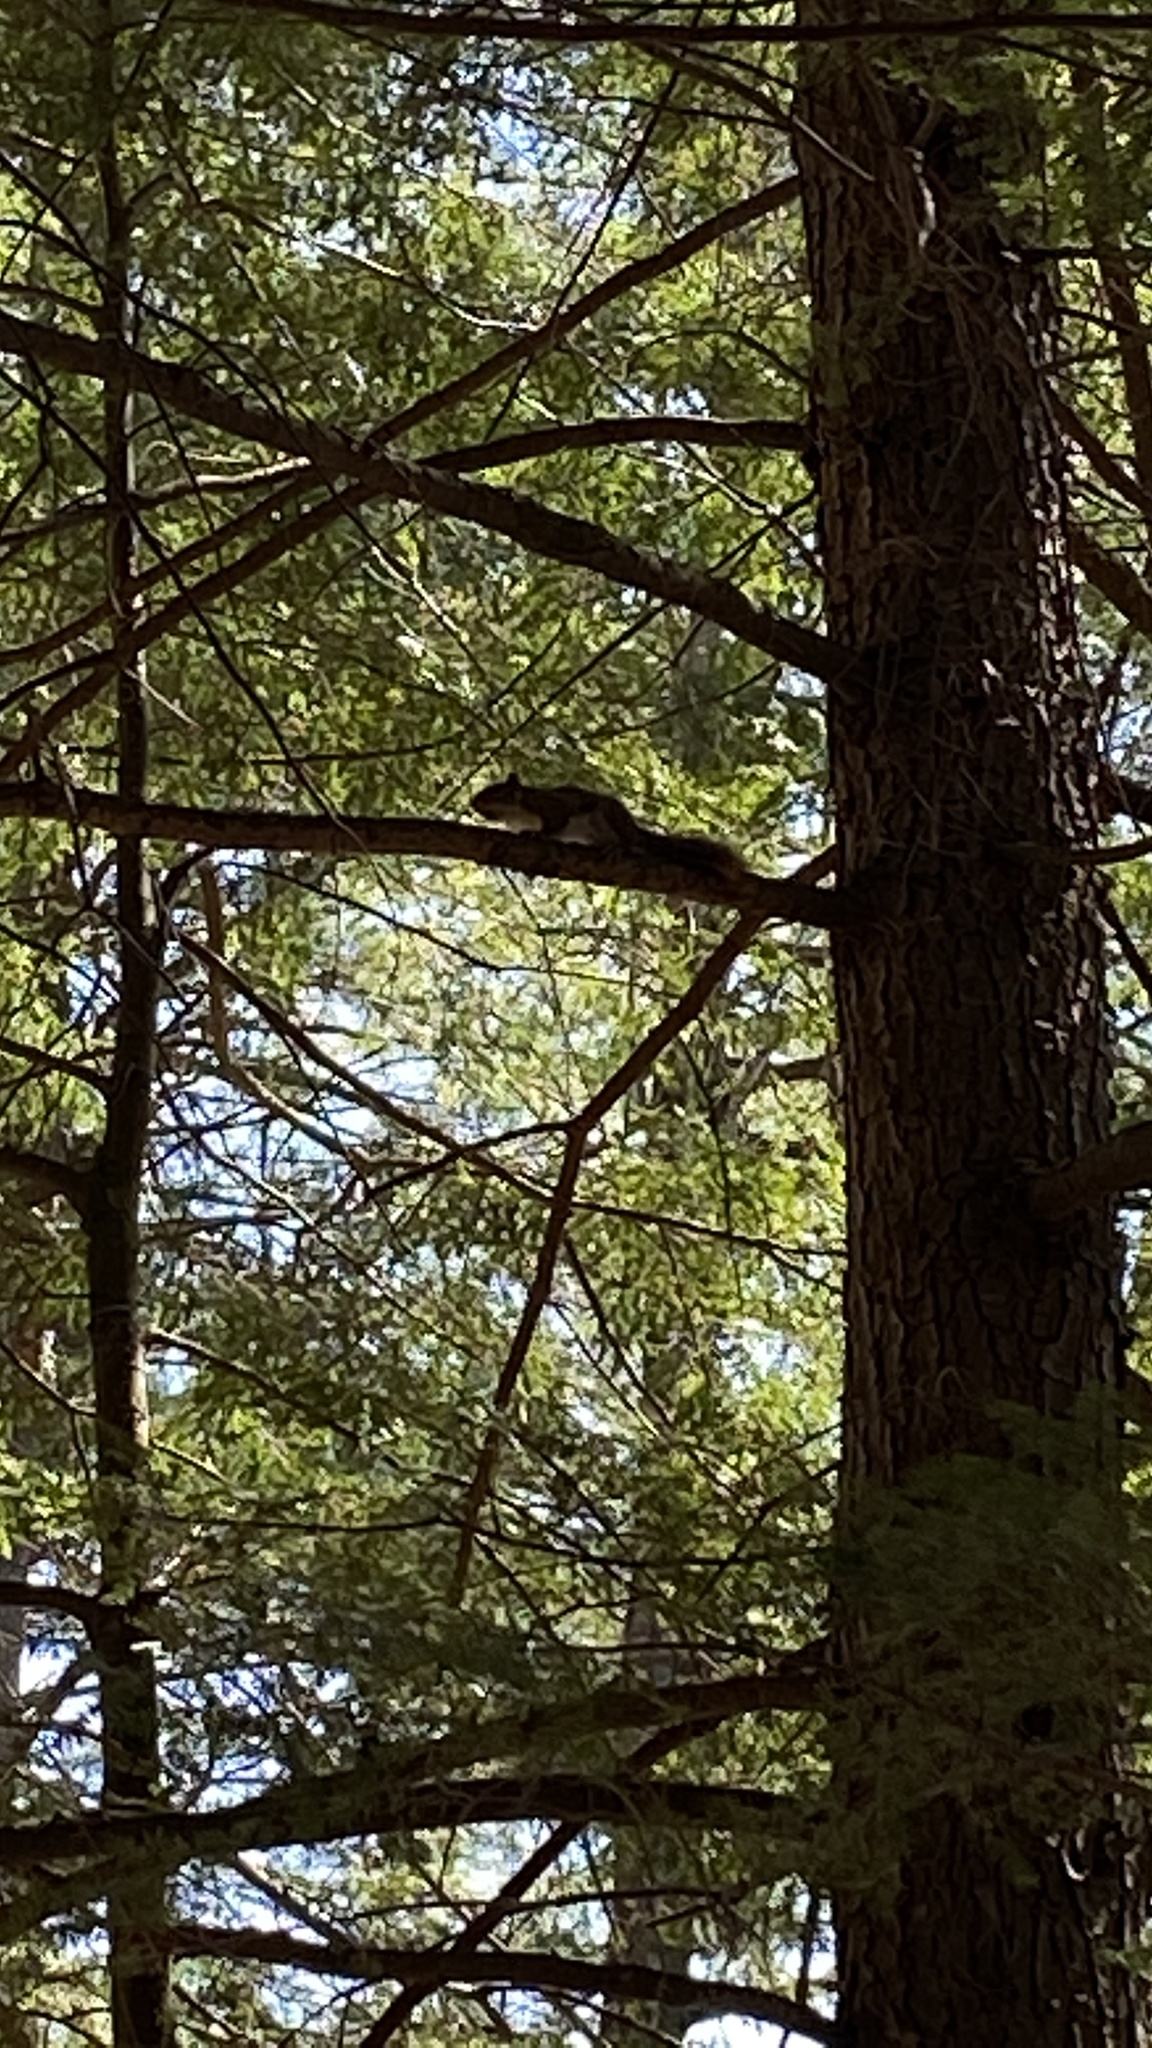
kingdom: Animalia
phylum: Chordata
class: Mammalia
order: Rodentia
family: Sciuridae
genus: Tamiasciurus
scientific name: Tamiasciurus hudsonicus
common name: Red squirrel
